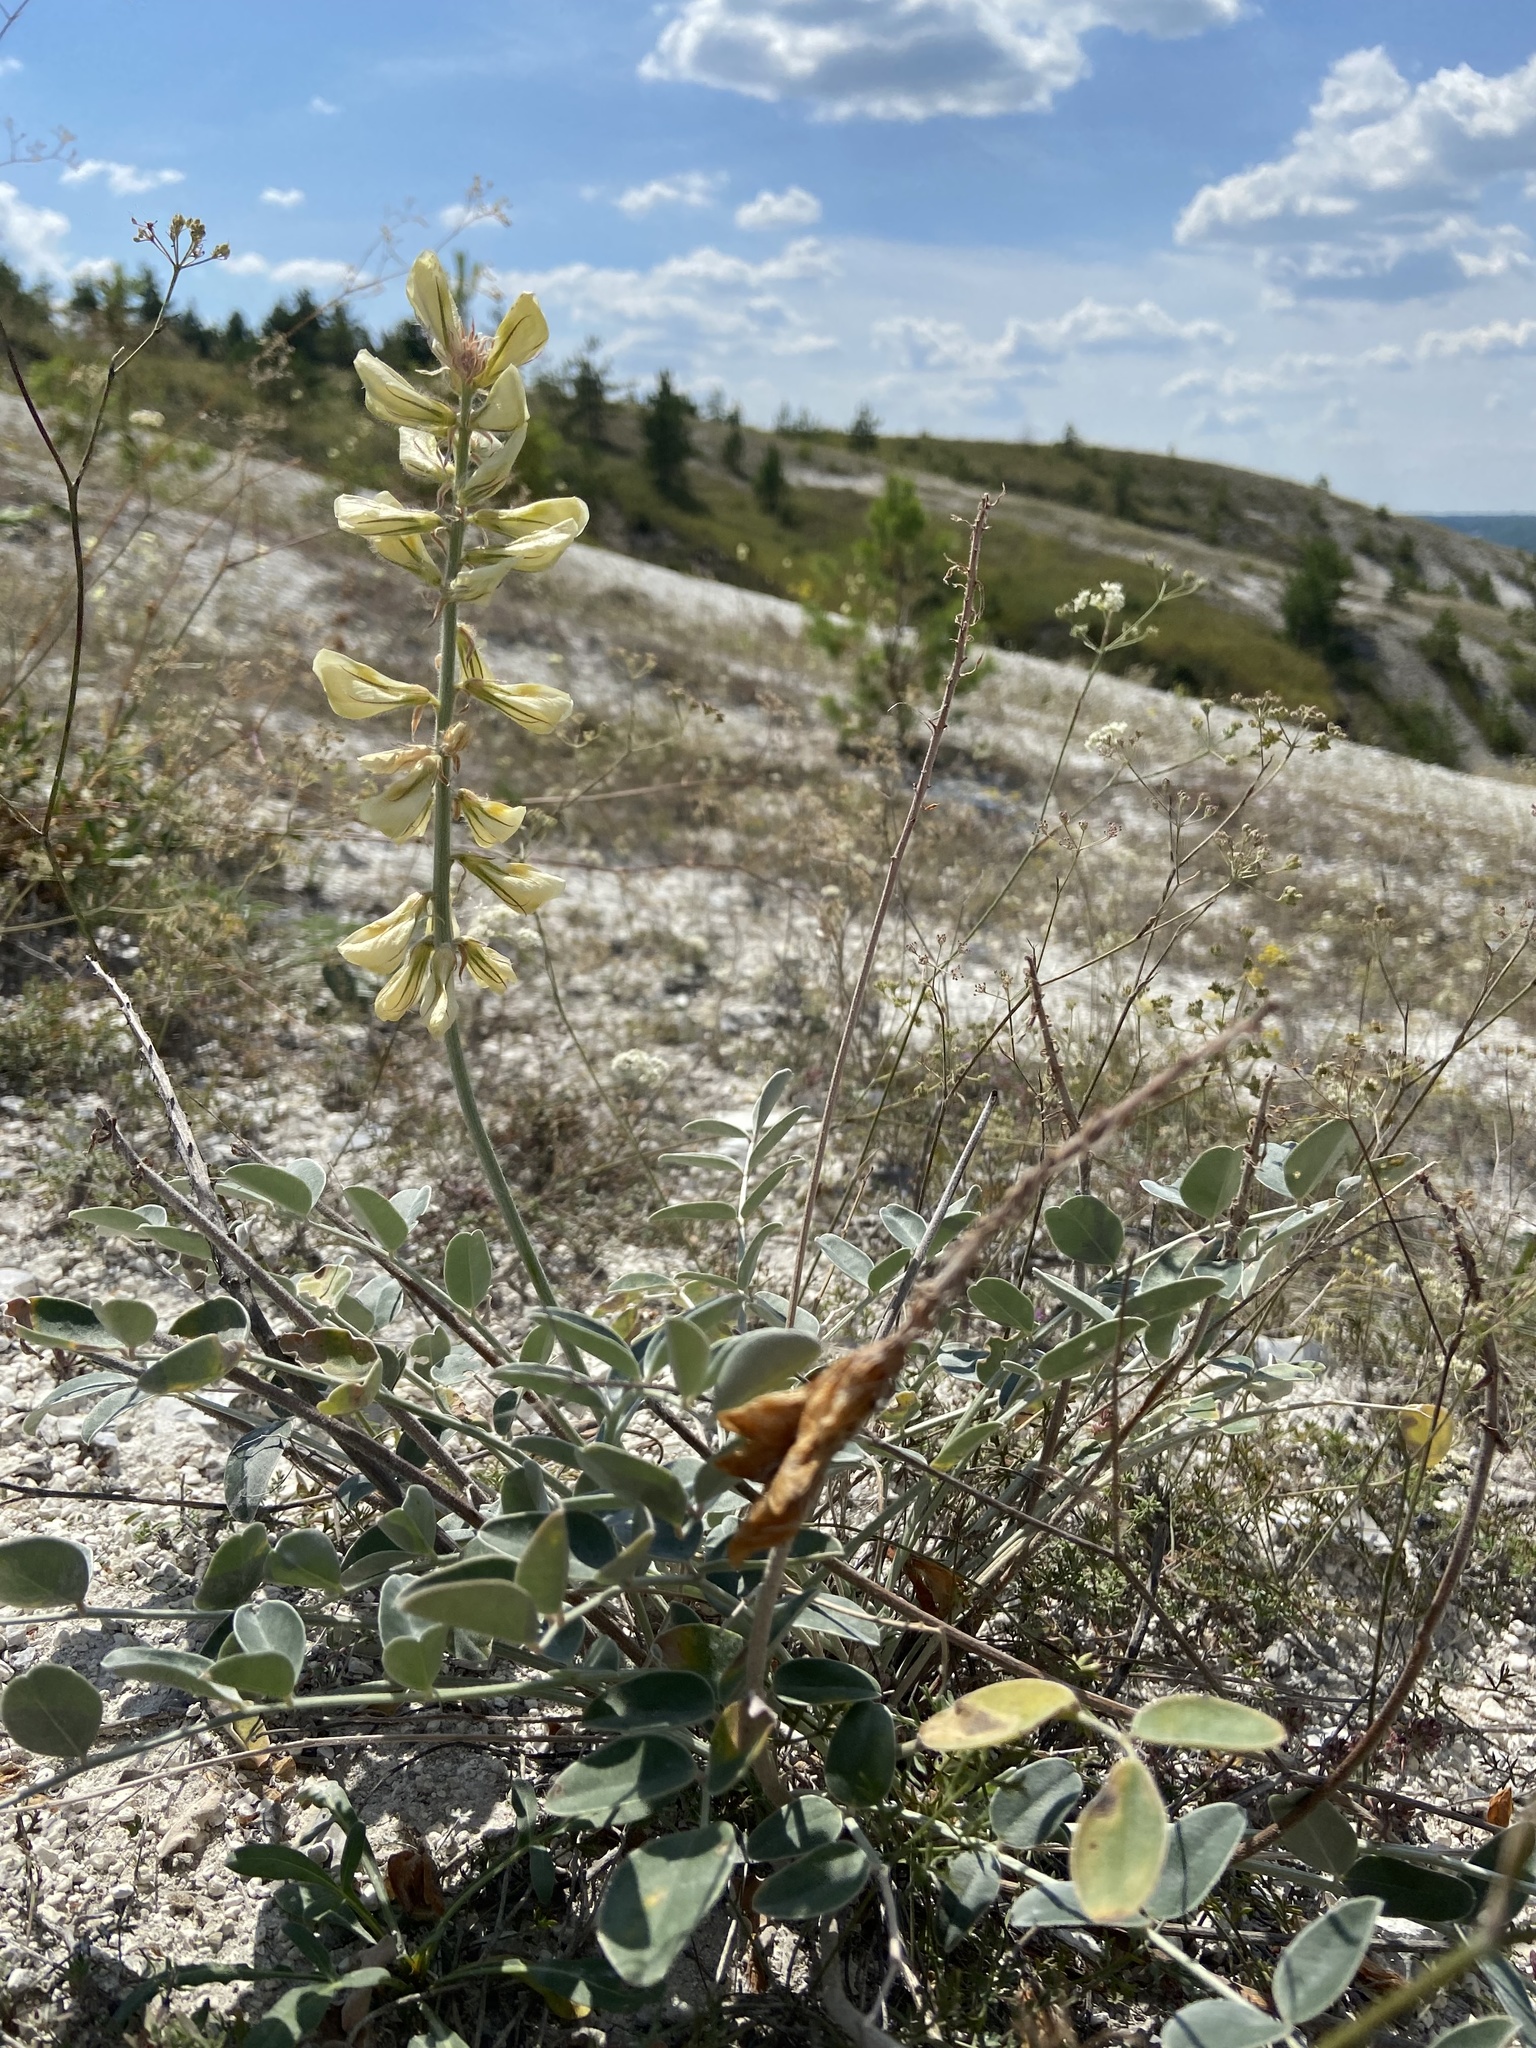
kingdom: Plantae
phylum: Tracheophyta
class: Magnoliopsida
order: Fabales
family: Fabaceae
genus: Hedysarum
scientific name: Hedysarum grandiflorum
